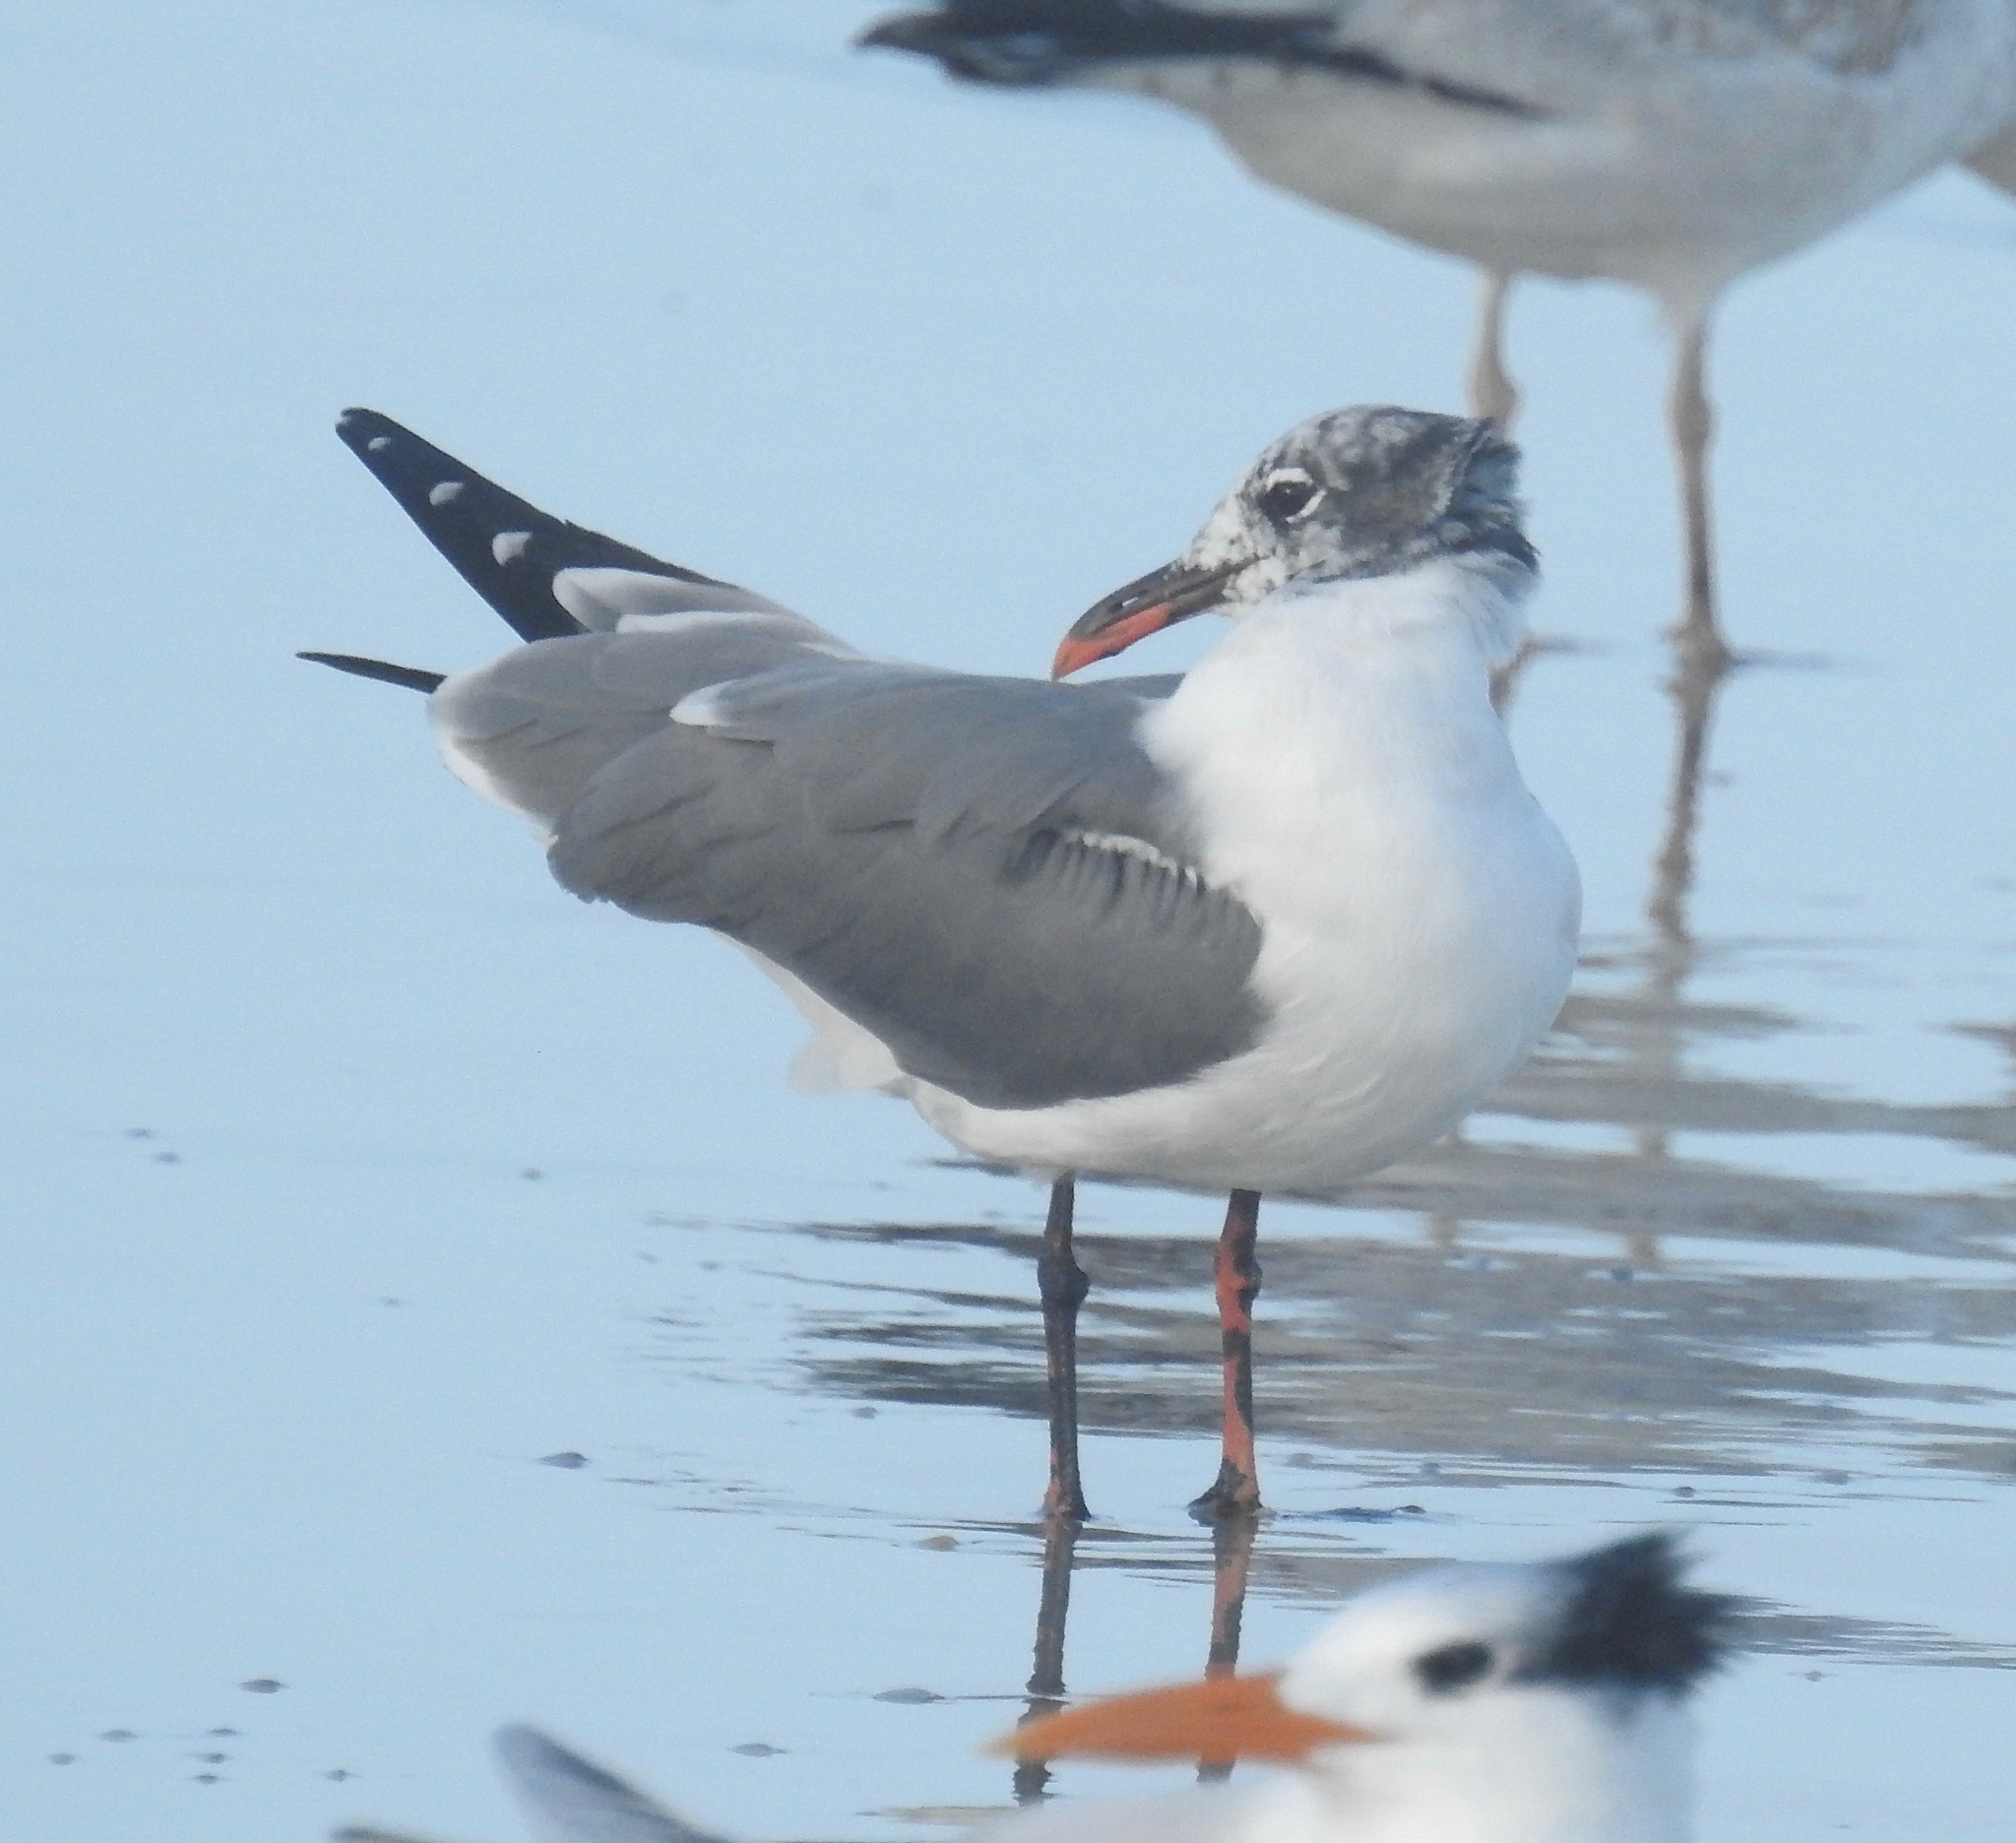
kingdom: Animalia
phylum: Chordata
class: Aves
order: Charadriiformes
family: Laridae
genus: Leucophaeus
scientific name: Leucophaeus atricilla
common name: Laughing gull
